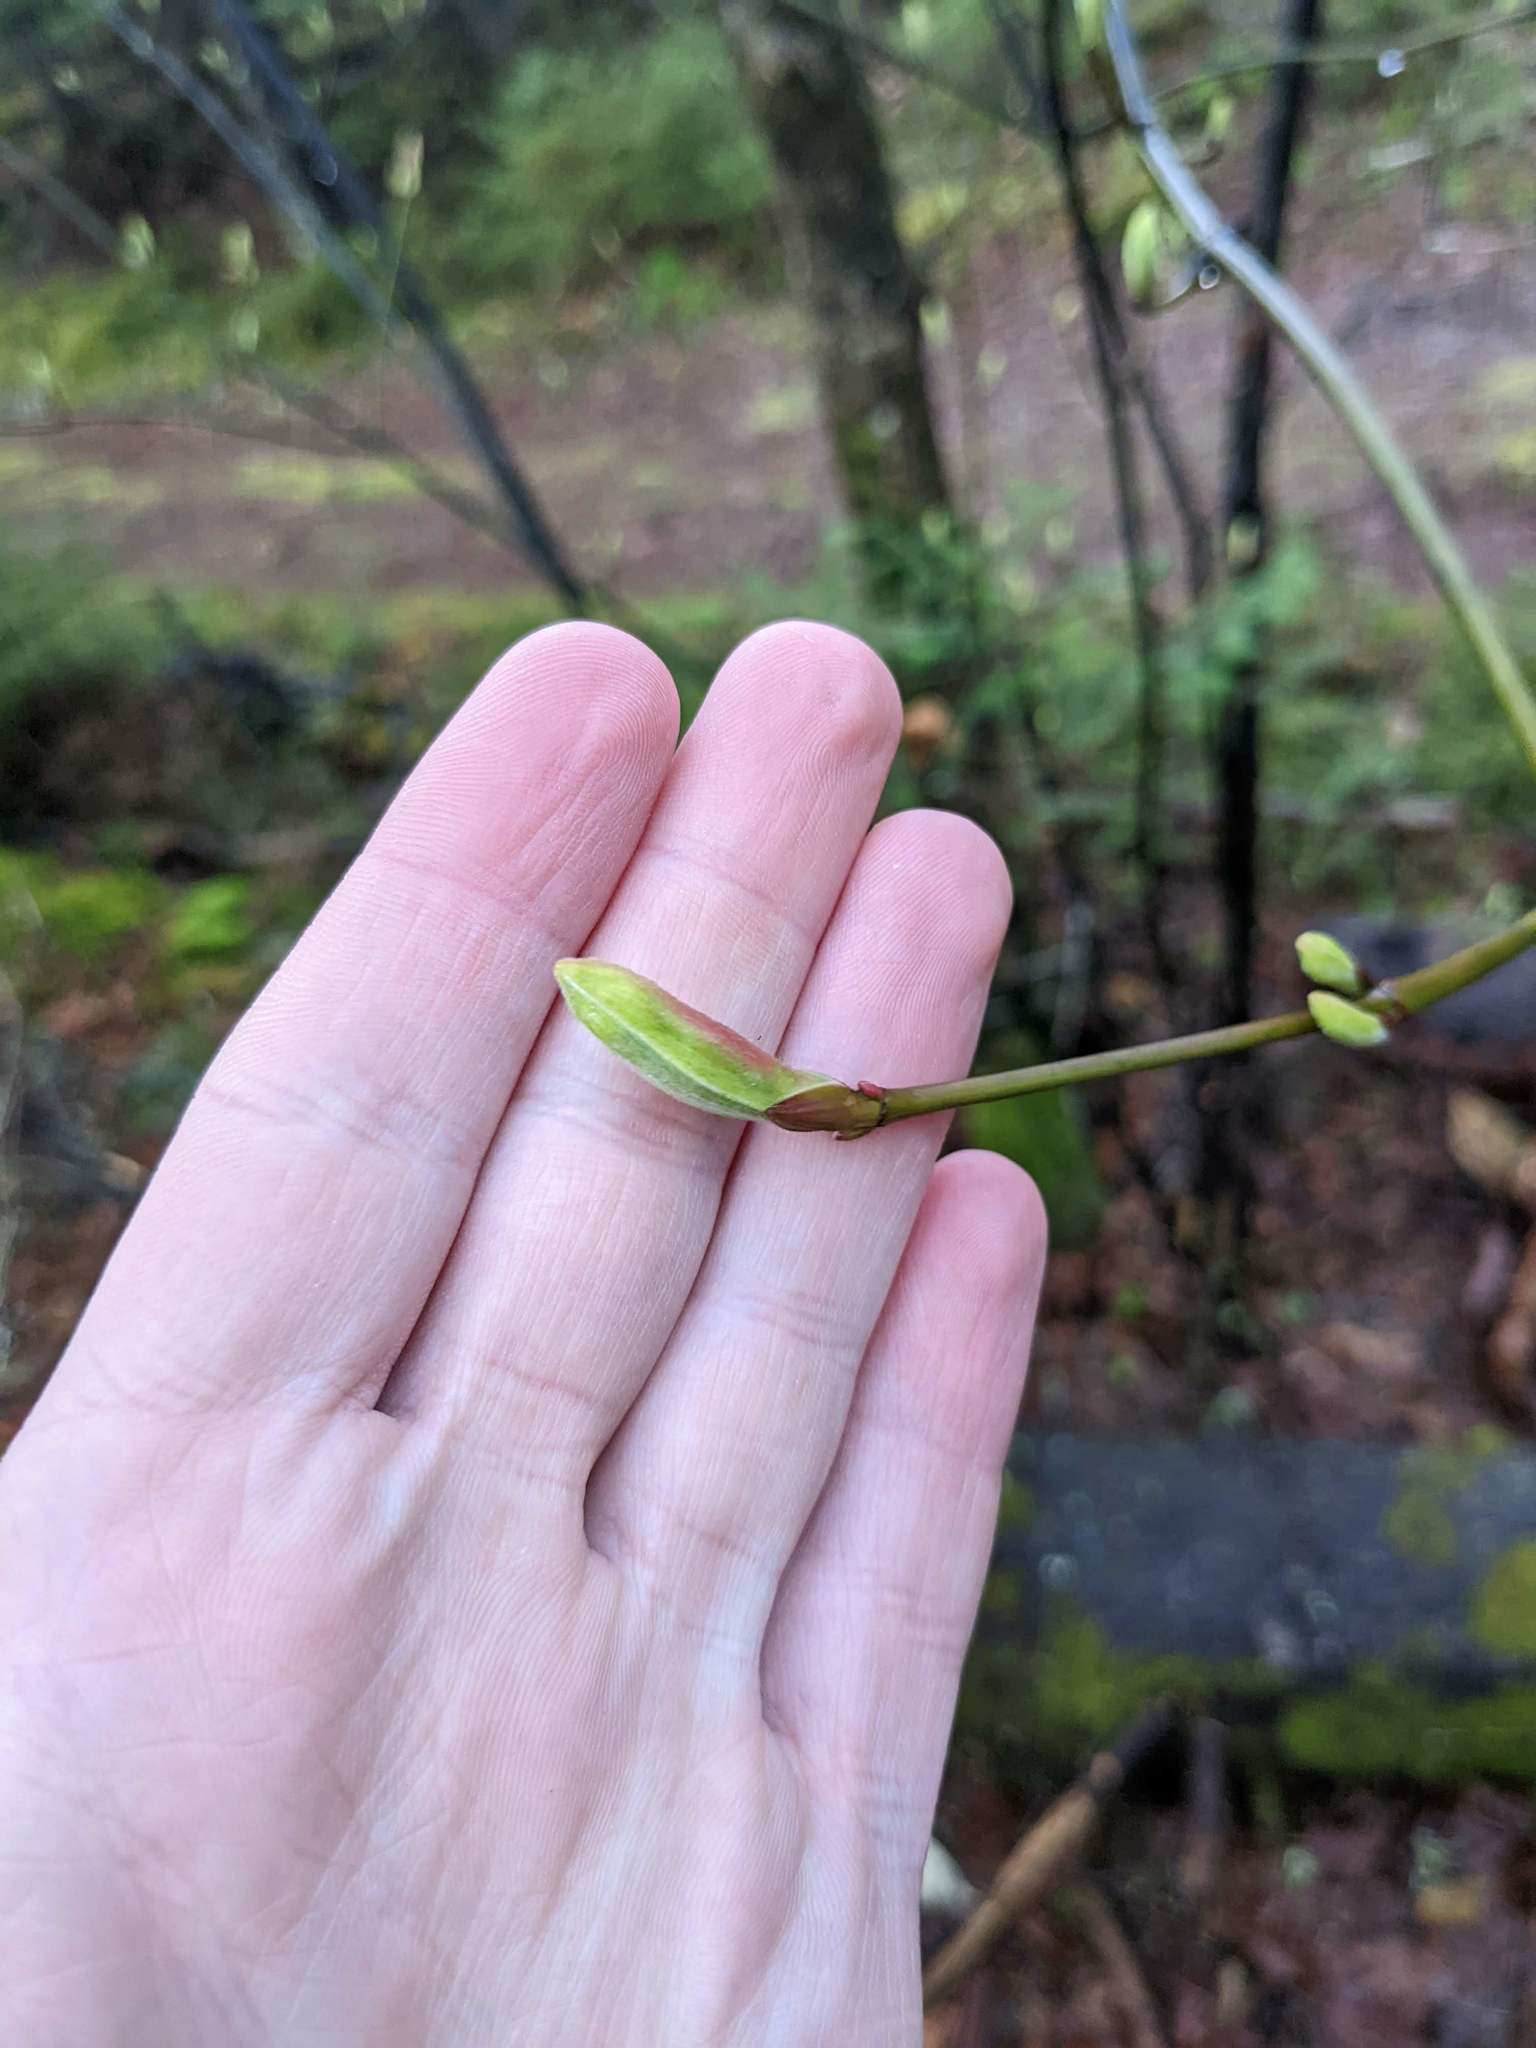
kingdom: Plantae
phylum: Tracheophyta
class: Magnoliopsida
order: Sapindales
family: Sapindaceae
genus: Acer
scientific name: Acer pensylvanicum
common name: Moosewood
